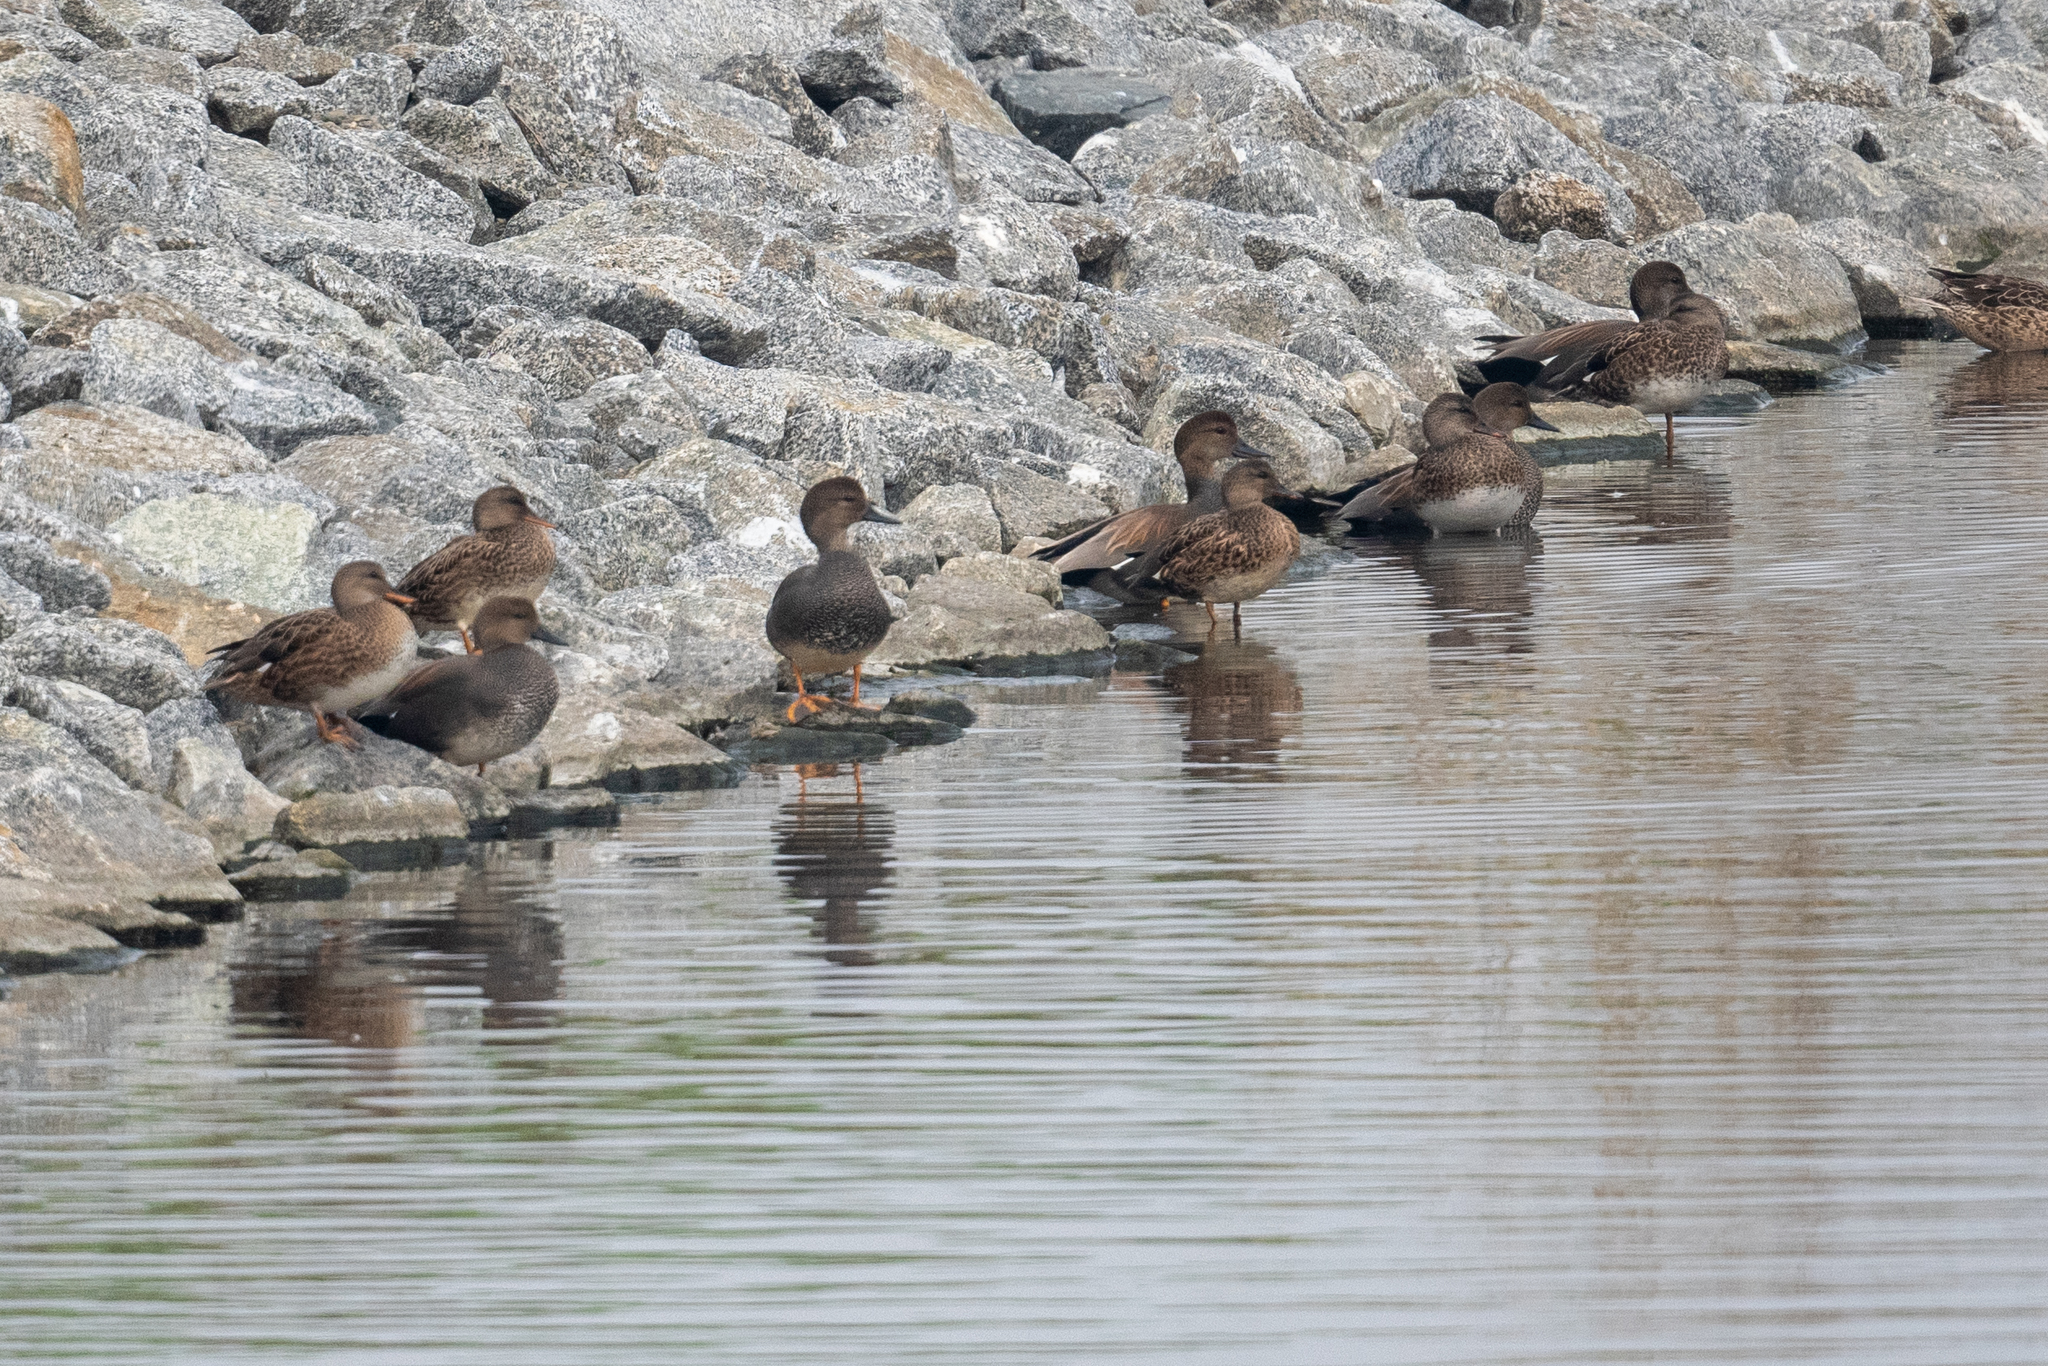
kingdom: Animalia
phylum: Chordata
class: Aves
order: Anseriformes
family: Anatidae
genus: Mareca
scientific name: Mareca strepera
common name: Gadwall
